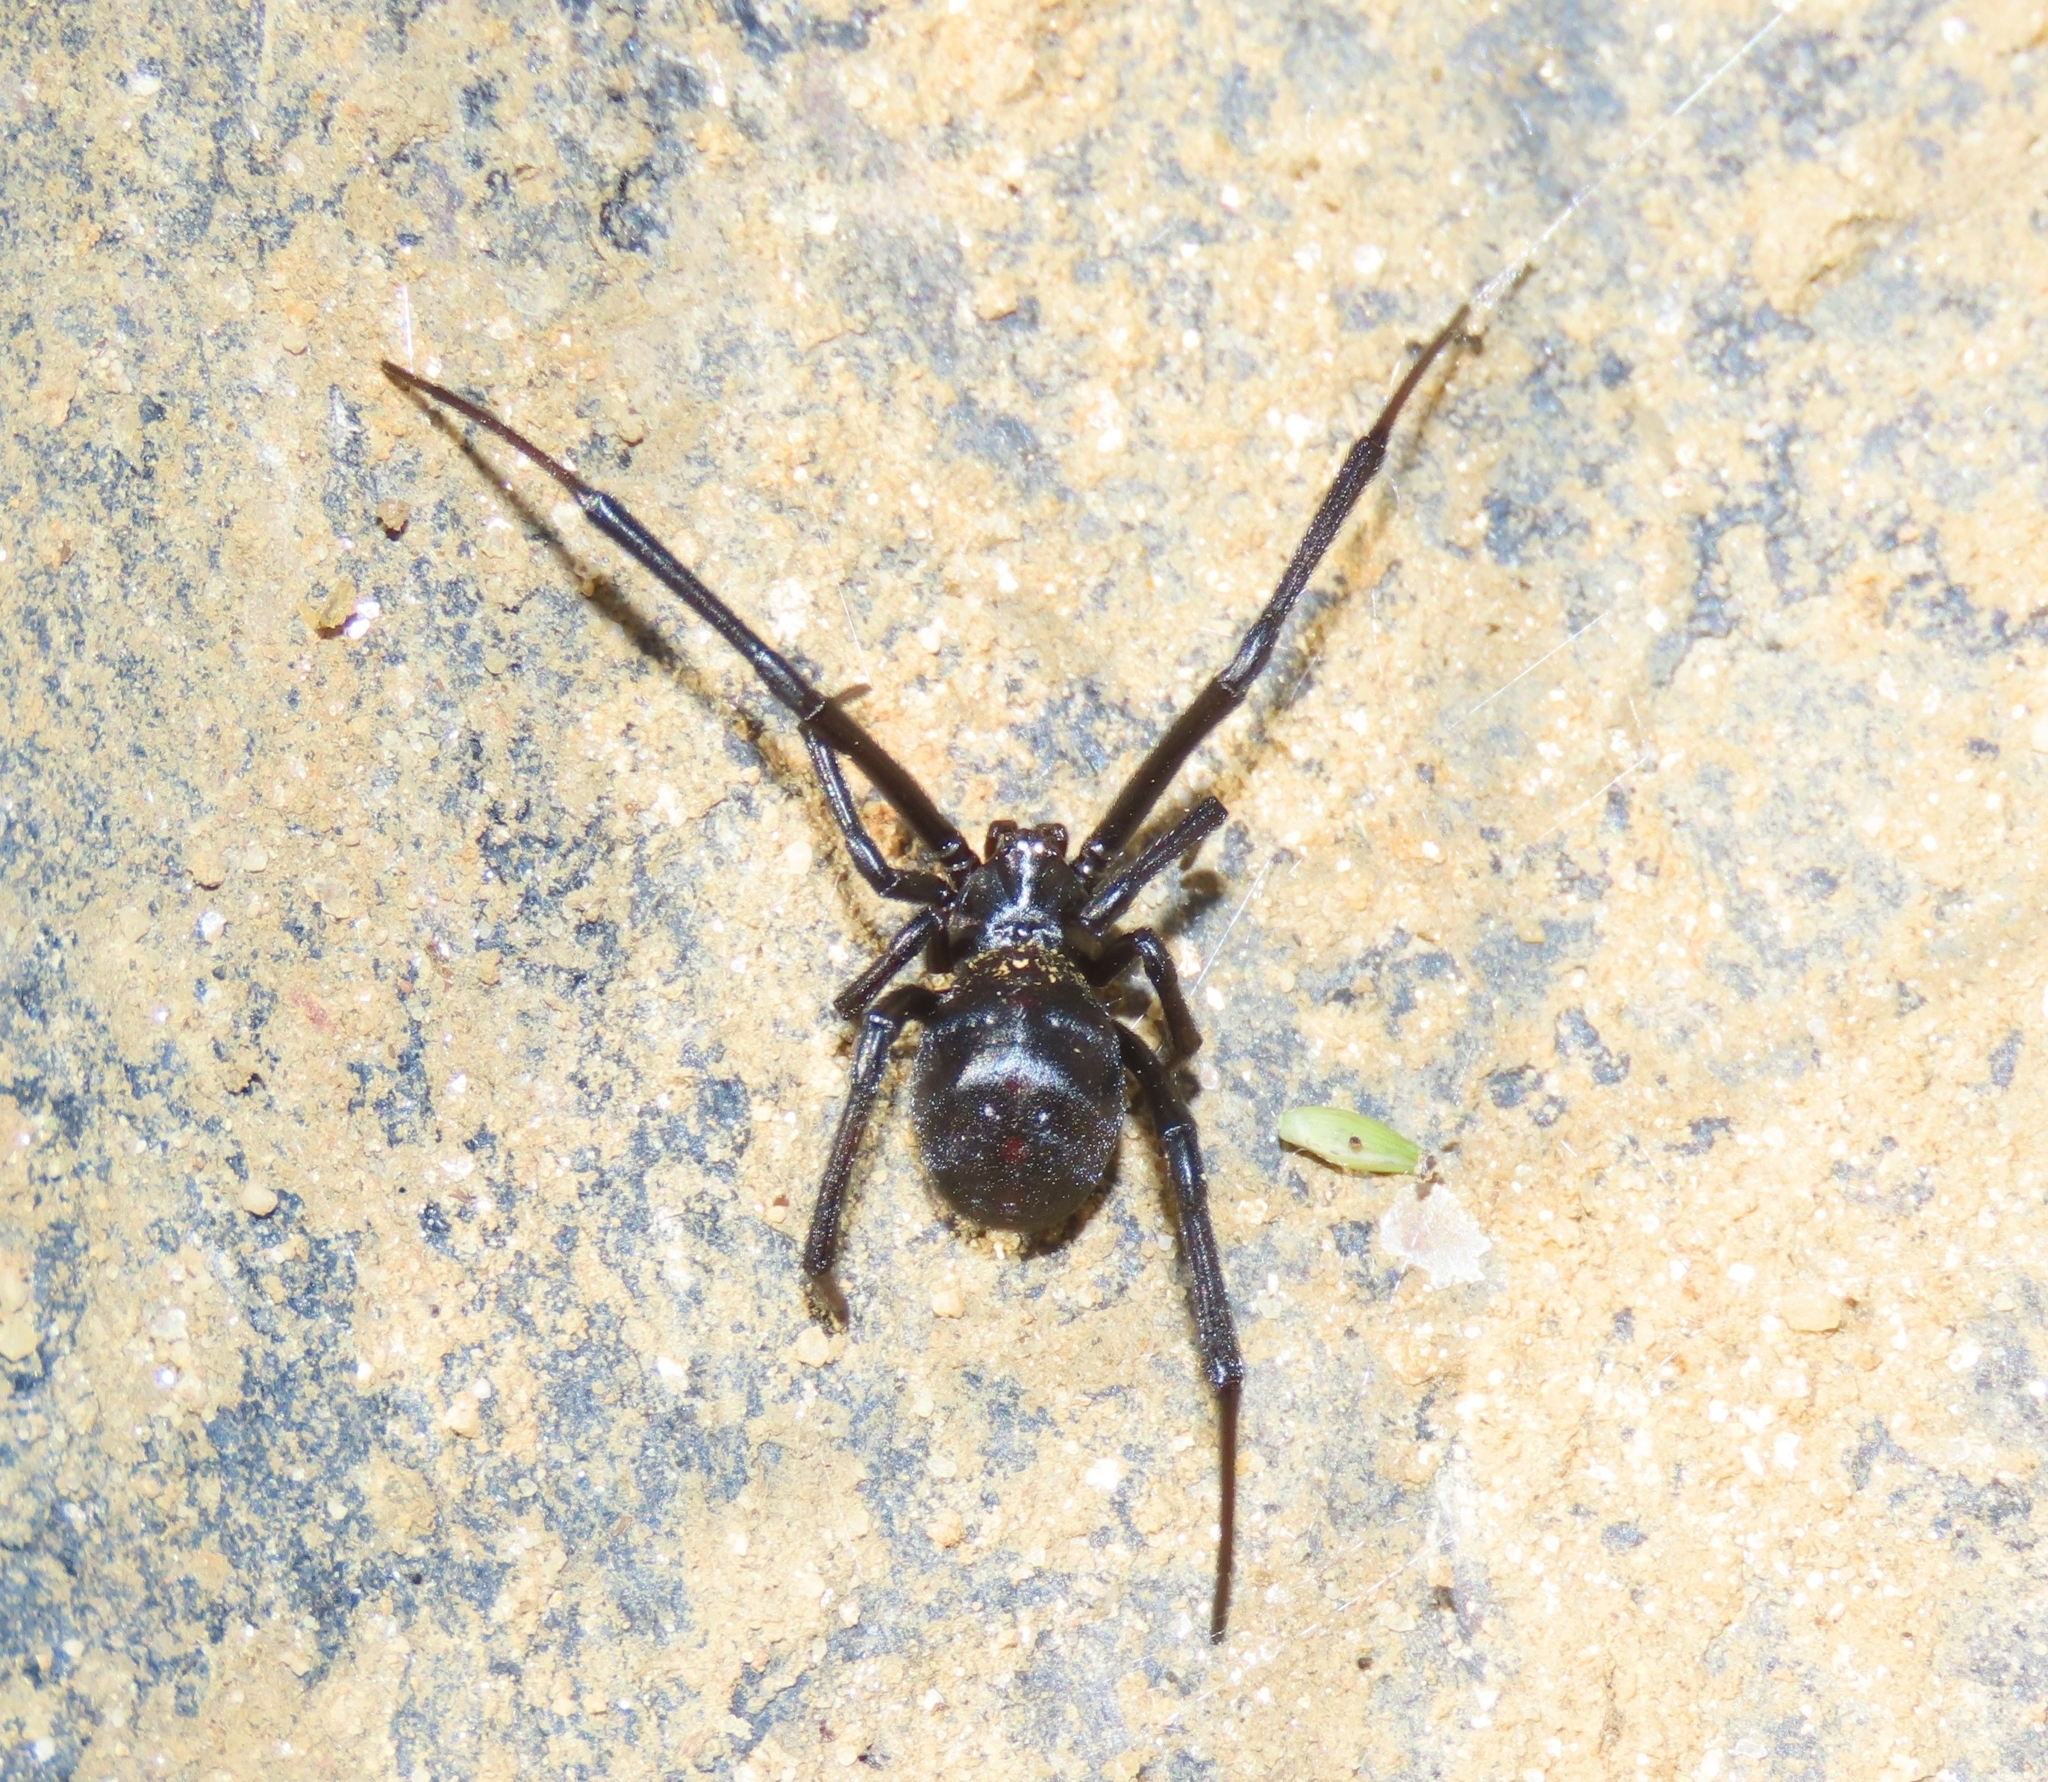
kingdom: Animalia
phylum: Arthropoda
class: Arachnida
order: Araneae
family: Theridiidae
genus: Latrodectus
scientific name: Latrodectus mactans
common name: Cobweb spiders
